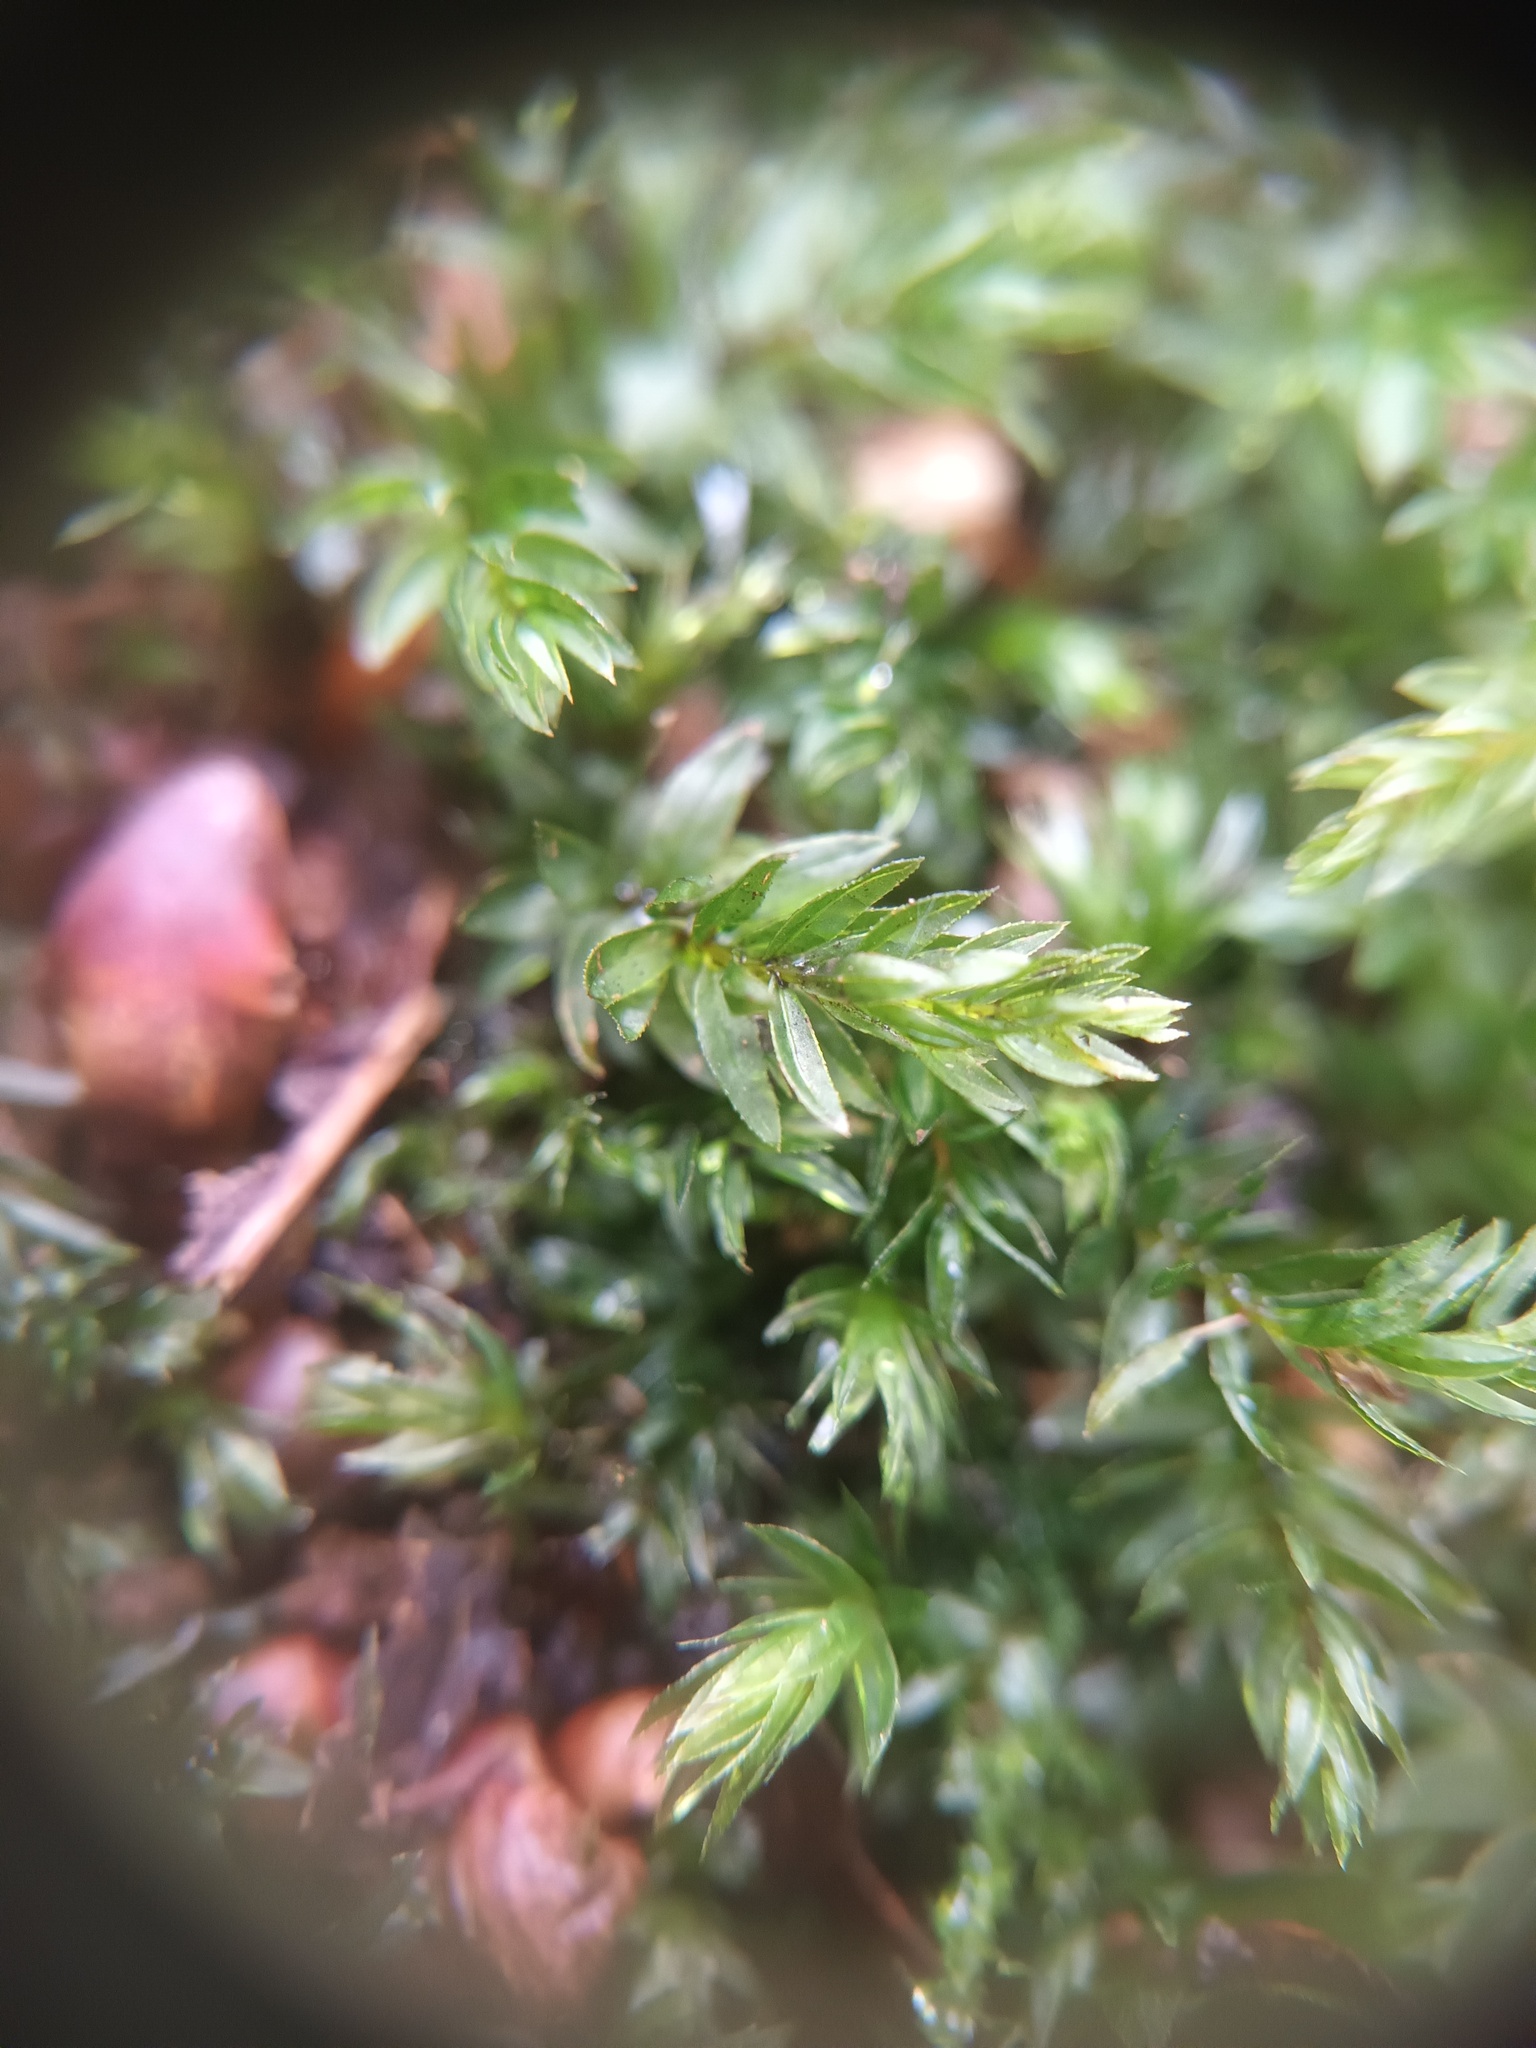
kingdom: Plantae
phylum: Bryophyta
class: Bryopsida
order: Bryales
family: Mniaceae
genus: Mnium
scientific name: Mnium hornum
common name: Swan's-neck leafy moss
